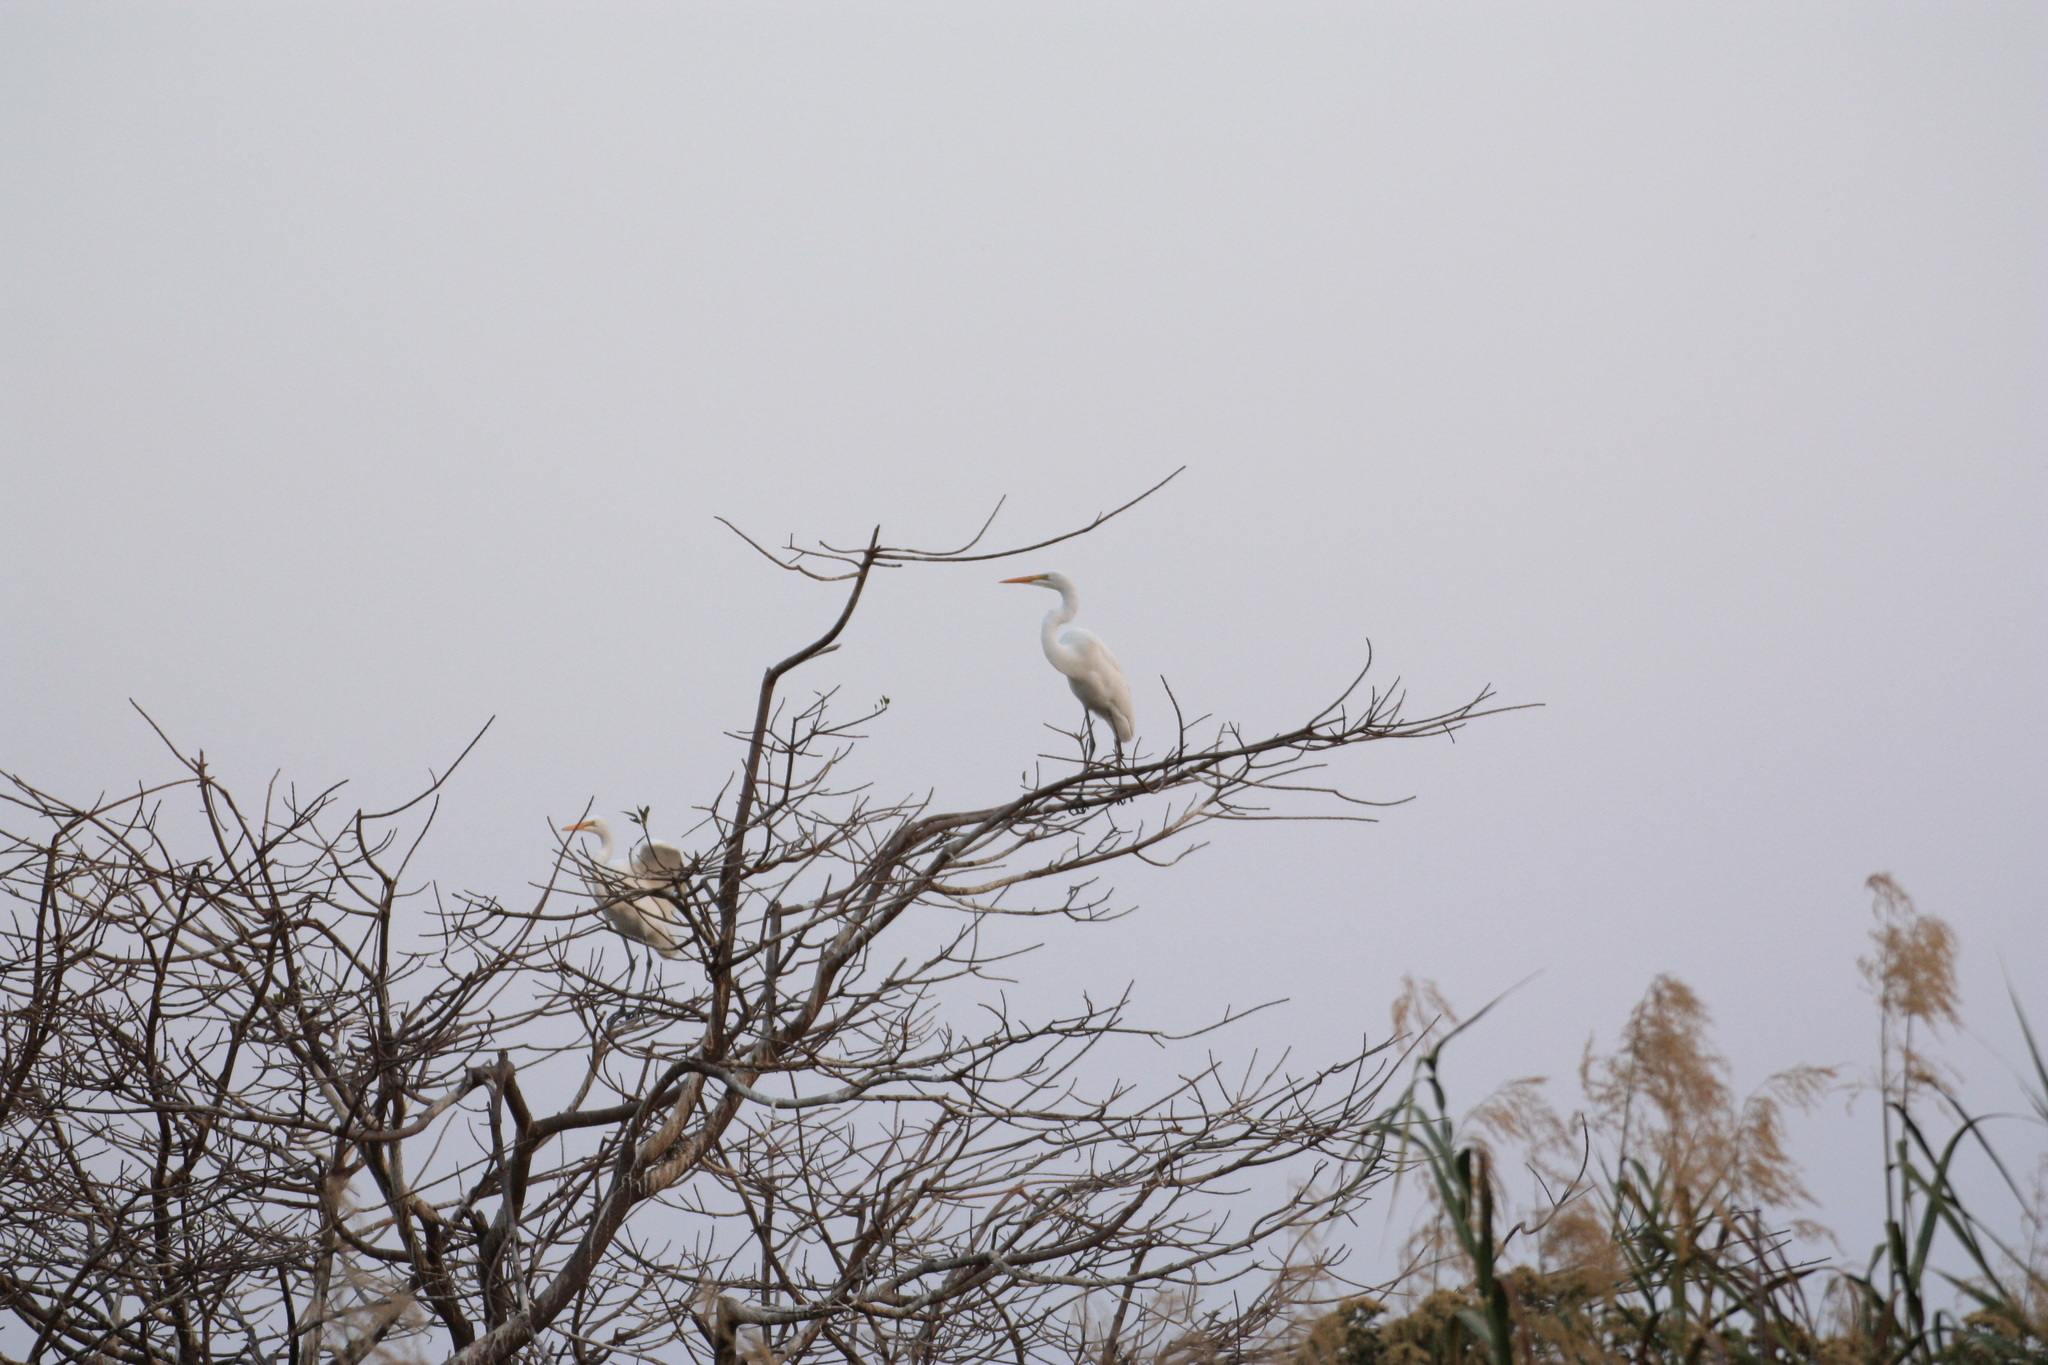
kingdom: Animalia
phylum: Chordata
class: Aves
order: Pelecaniformes
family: Ardeidae
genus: Ardea
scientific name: Ardea alba
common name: Great egret
